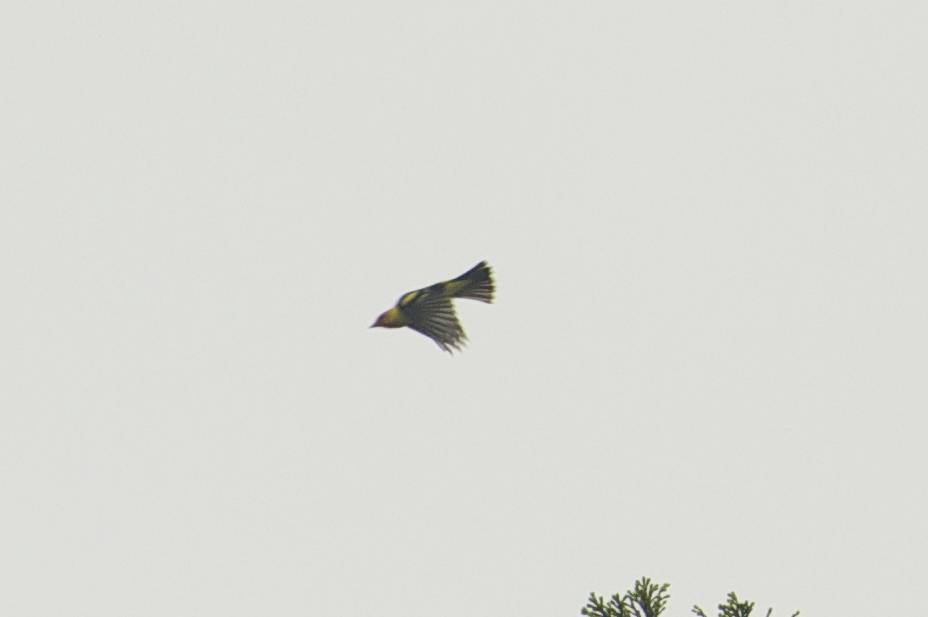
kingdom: Animalia
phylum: Chordata
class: Aves
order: Passeriformes
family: Cardinalidae
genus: Piranga
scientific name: Piranga ludoviciana
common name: Western tanager
